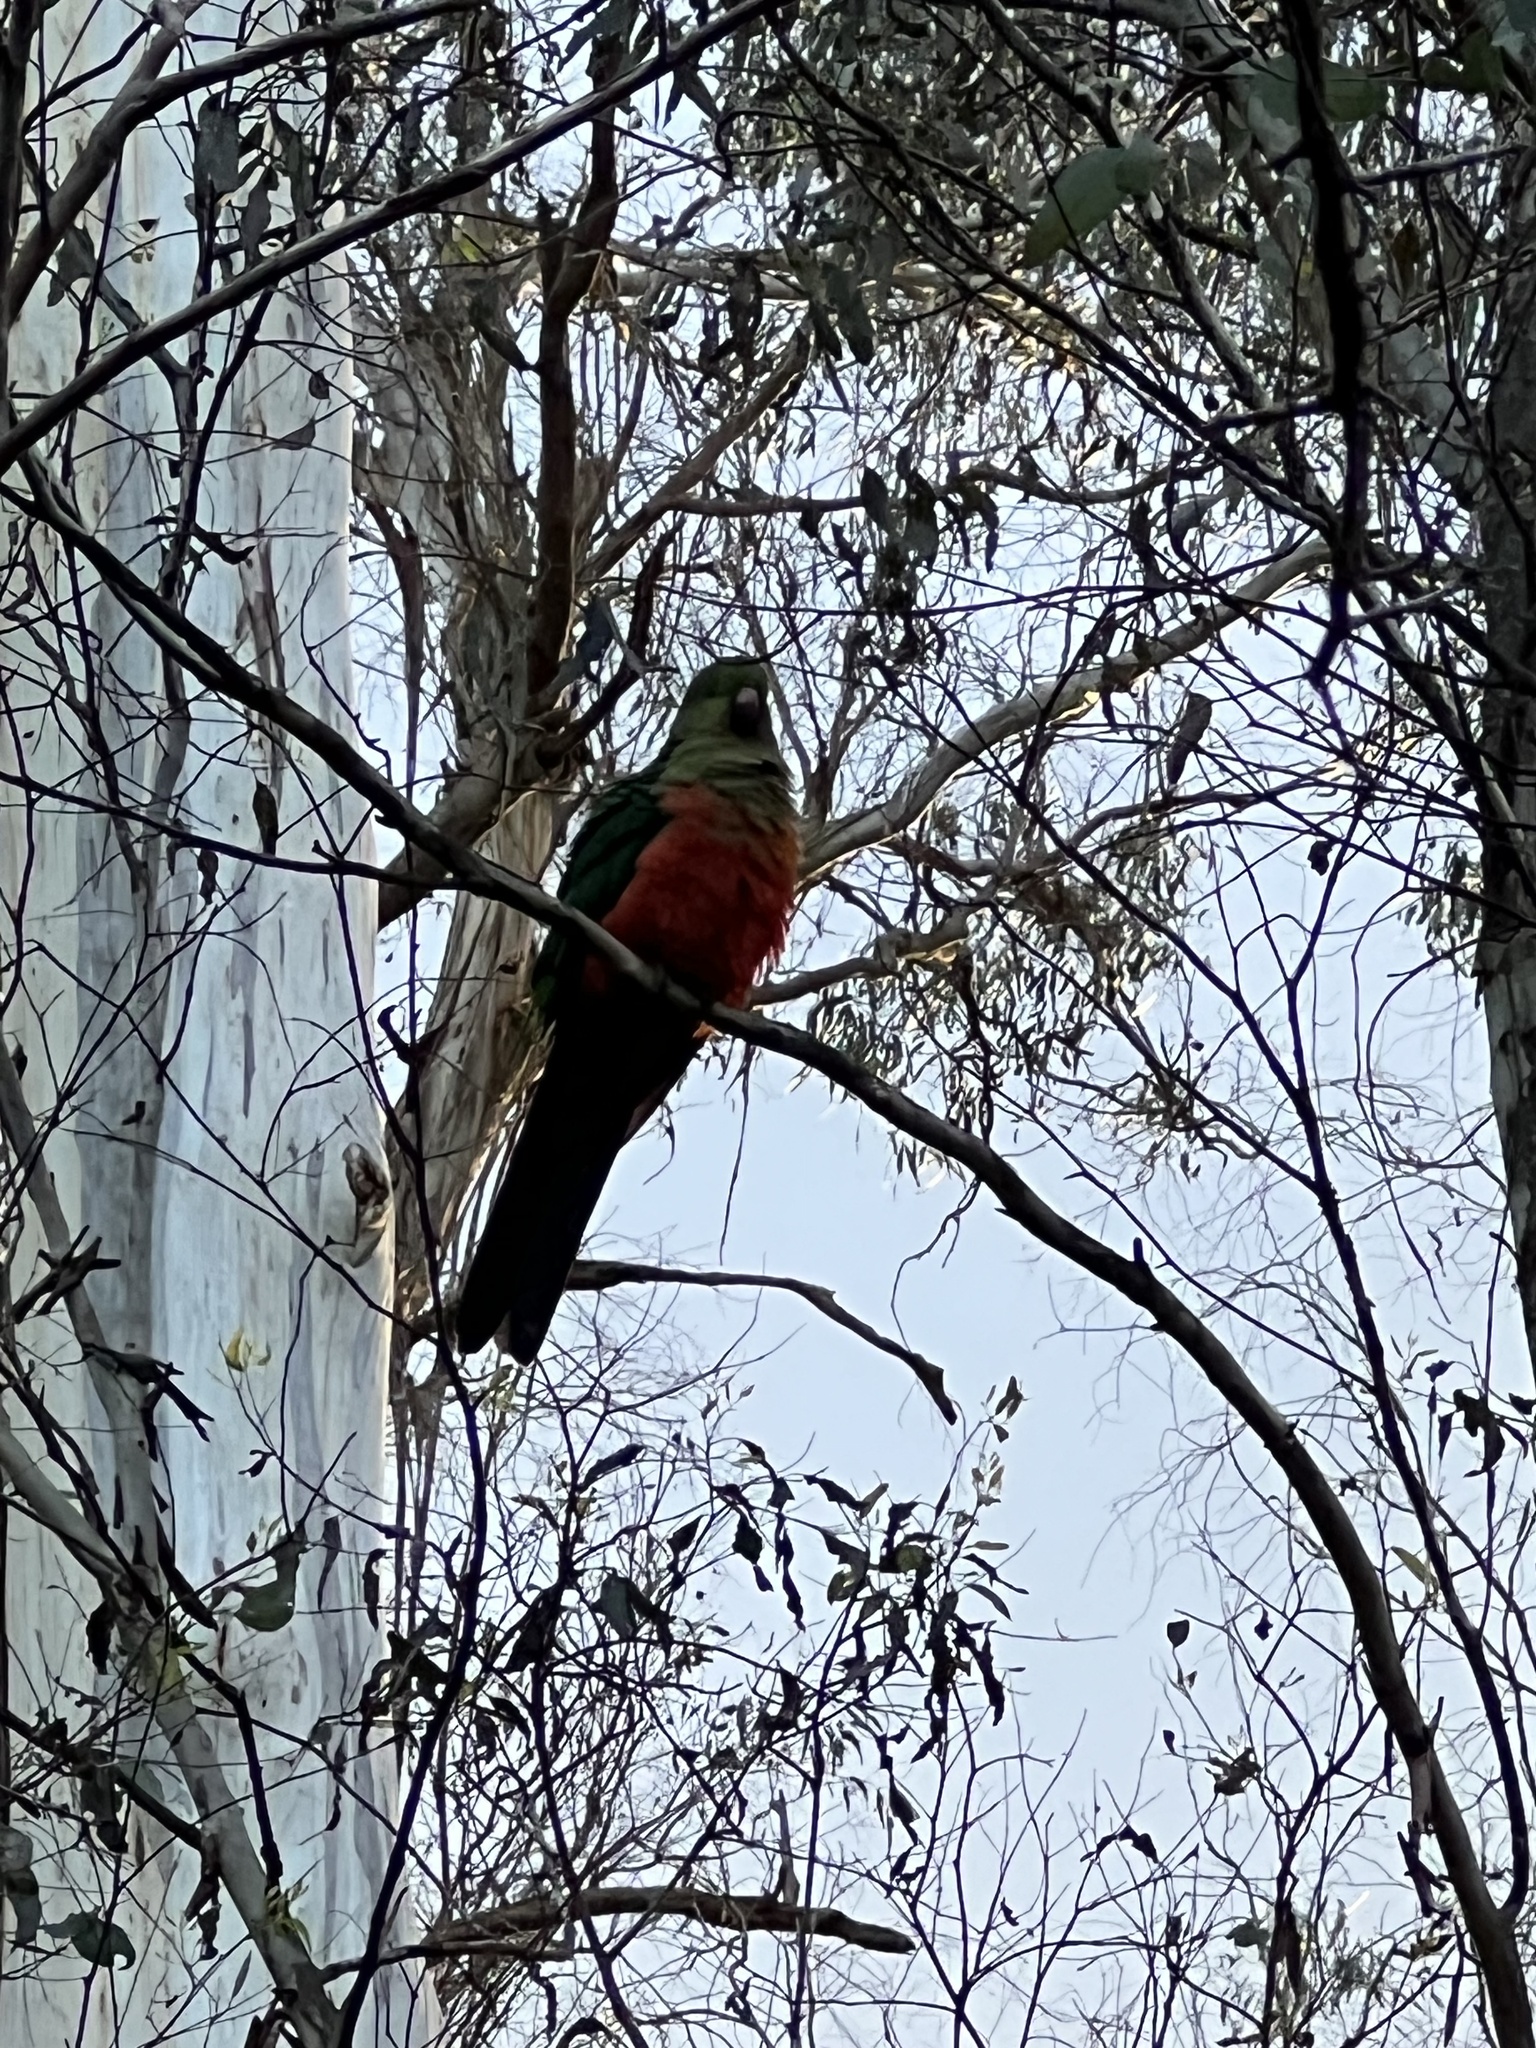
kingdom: Animalia
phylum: Chordata
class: Aves
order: Psittaciformes
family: Psittacidae
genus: Alisterus
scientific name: Alisterus scapularis
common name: Australian king parrot
